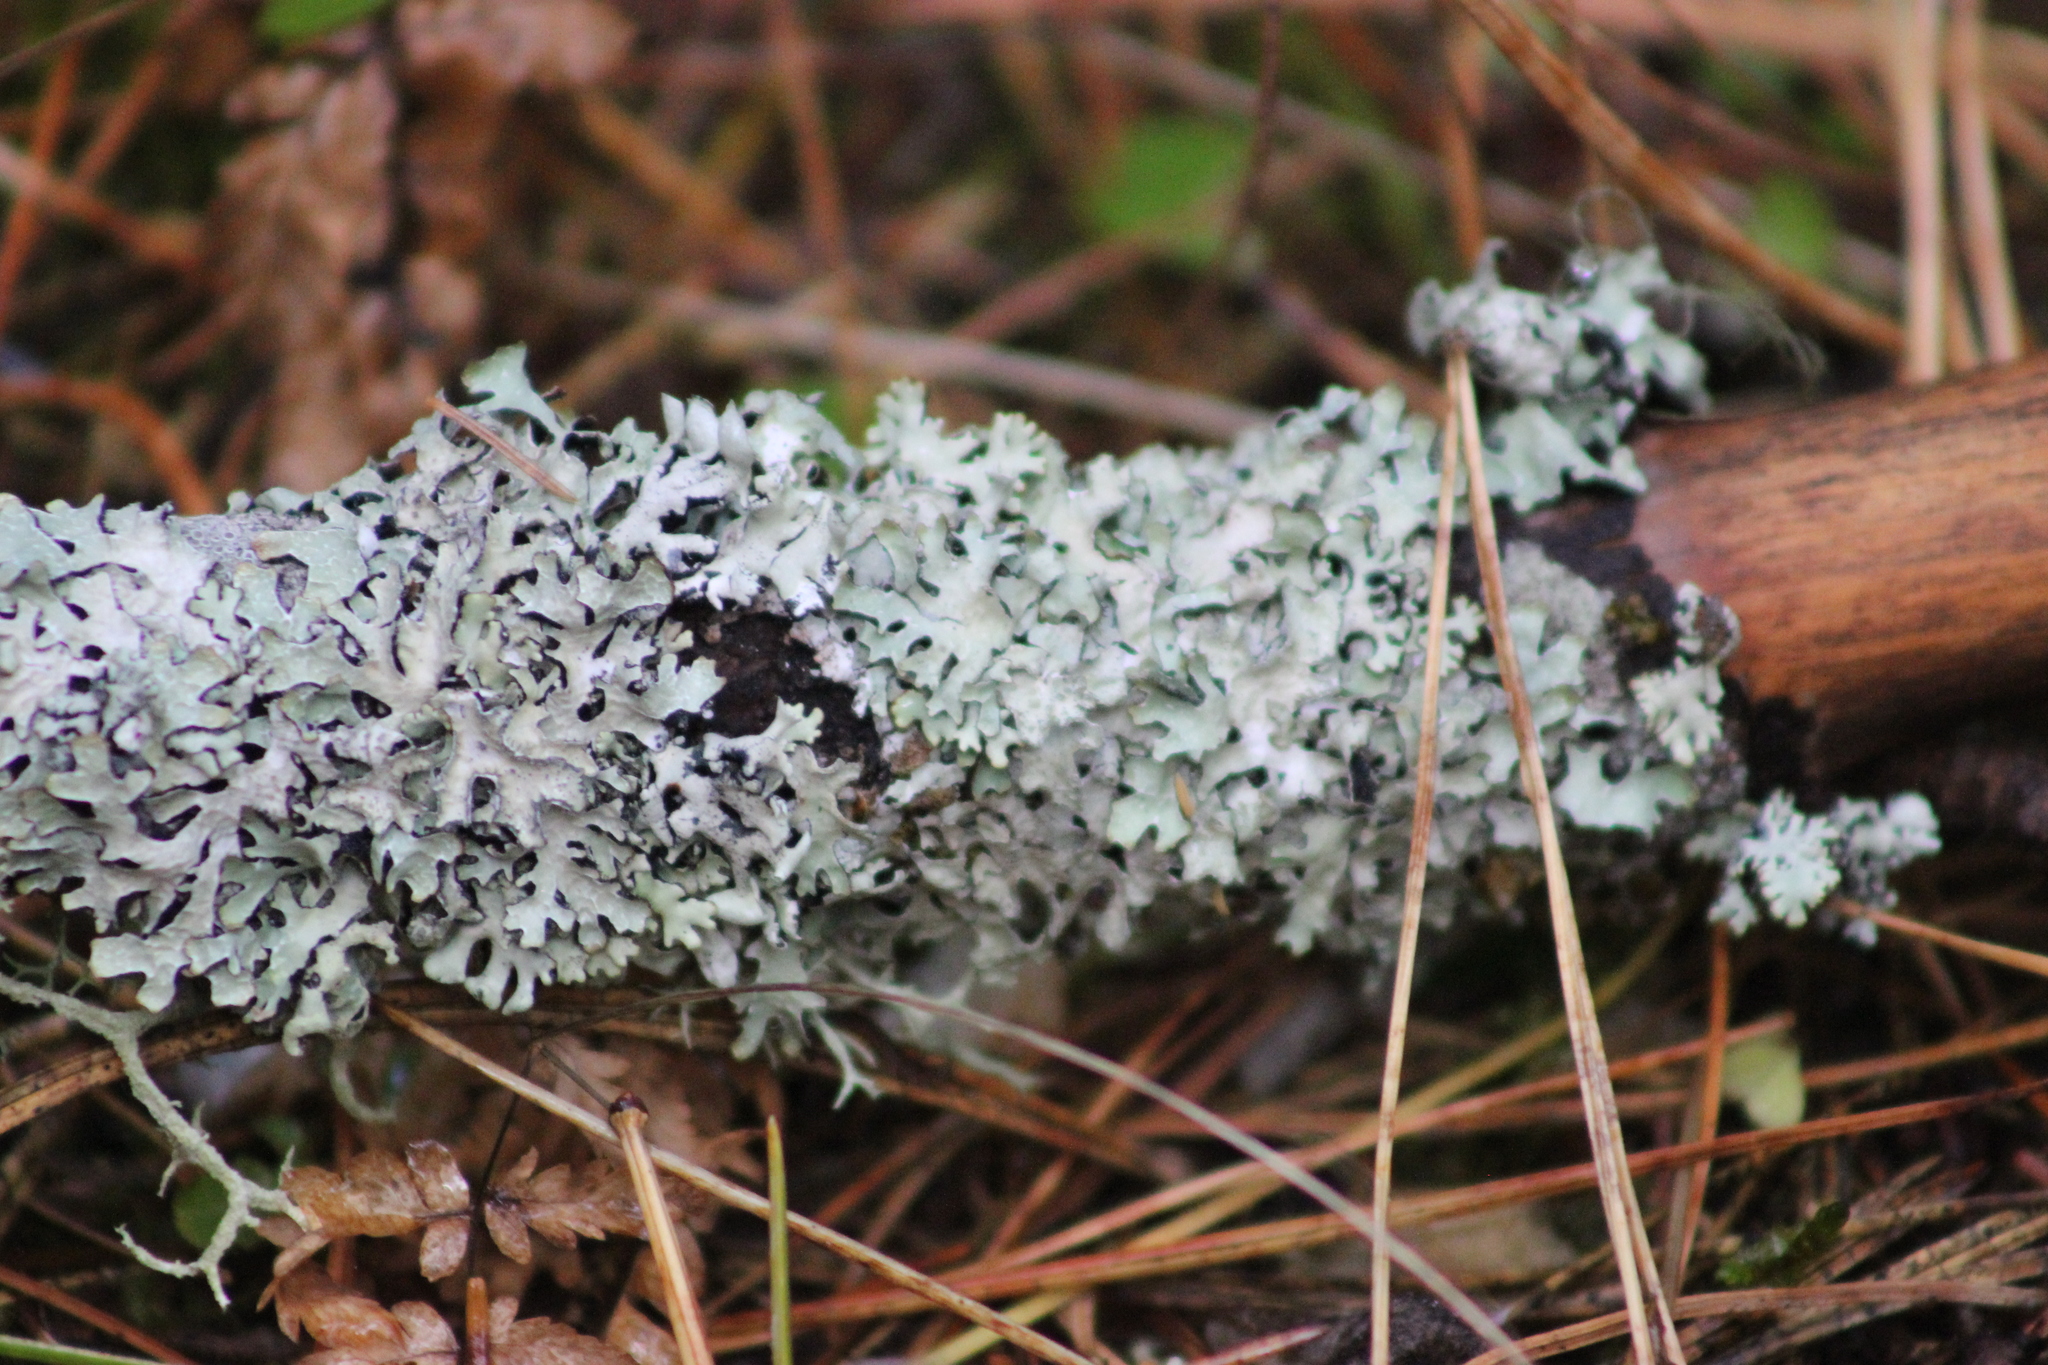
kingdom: Fungi
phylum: Ascomycota
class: Lecanoromycetes
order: Lecanorales
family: Parmeliaceae
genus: Parmelia
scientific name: Parmelia sulcata
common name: Netted shield lichen
